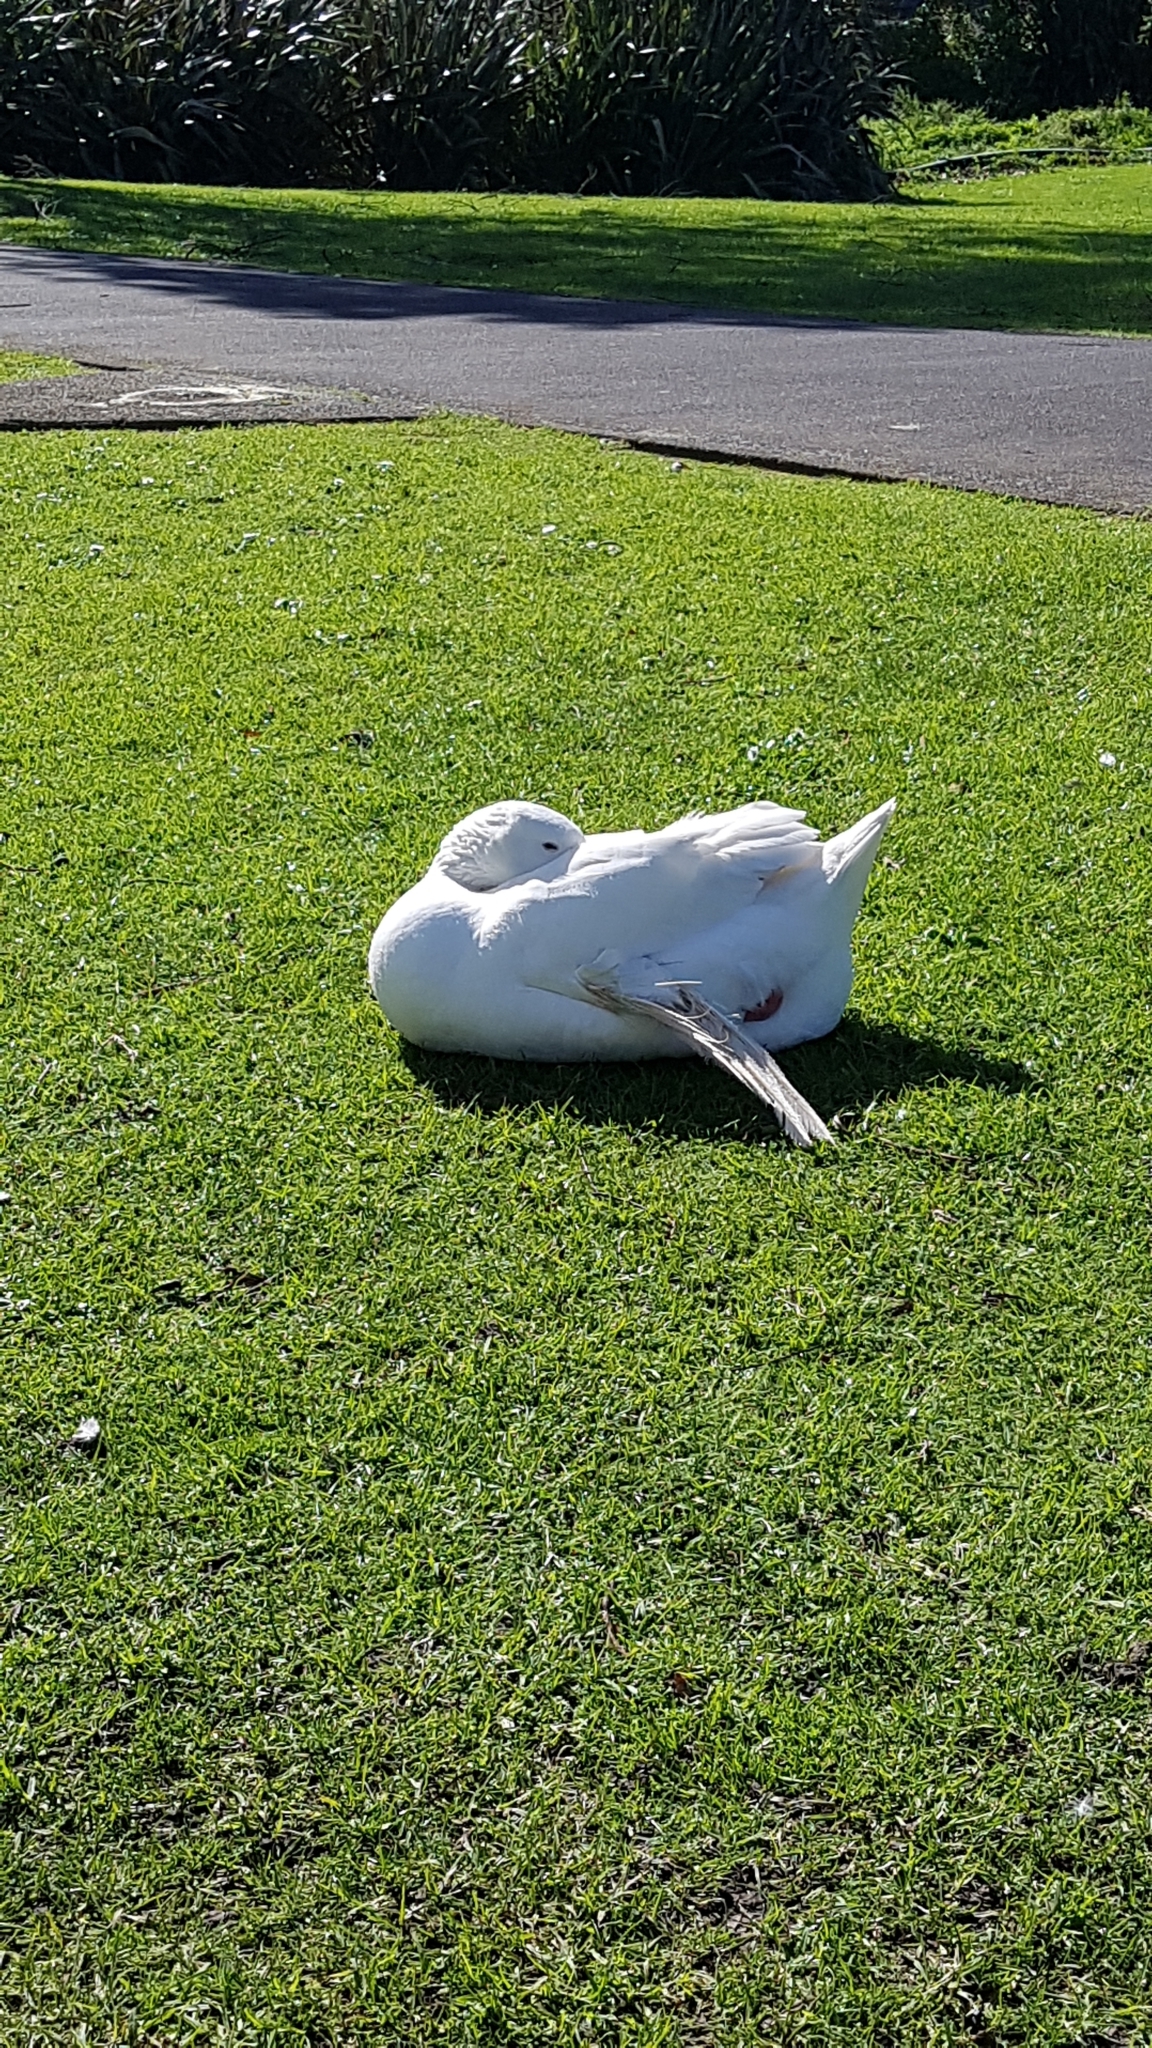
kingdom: Animalia
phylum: Chordata
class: Aves
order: Anseriformes
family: Anatidae
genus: Anser
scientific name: Anser anser
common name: Greylag goose
